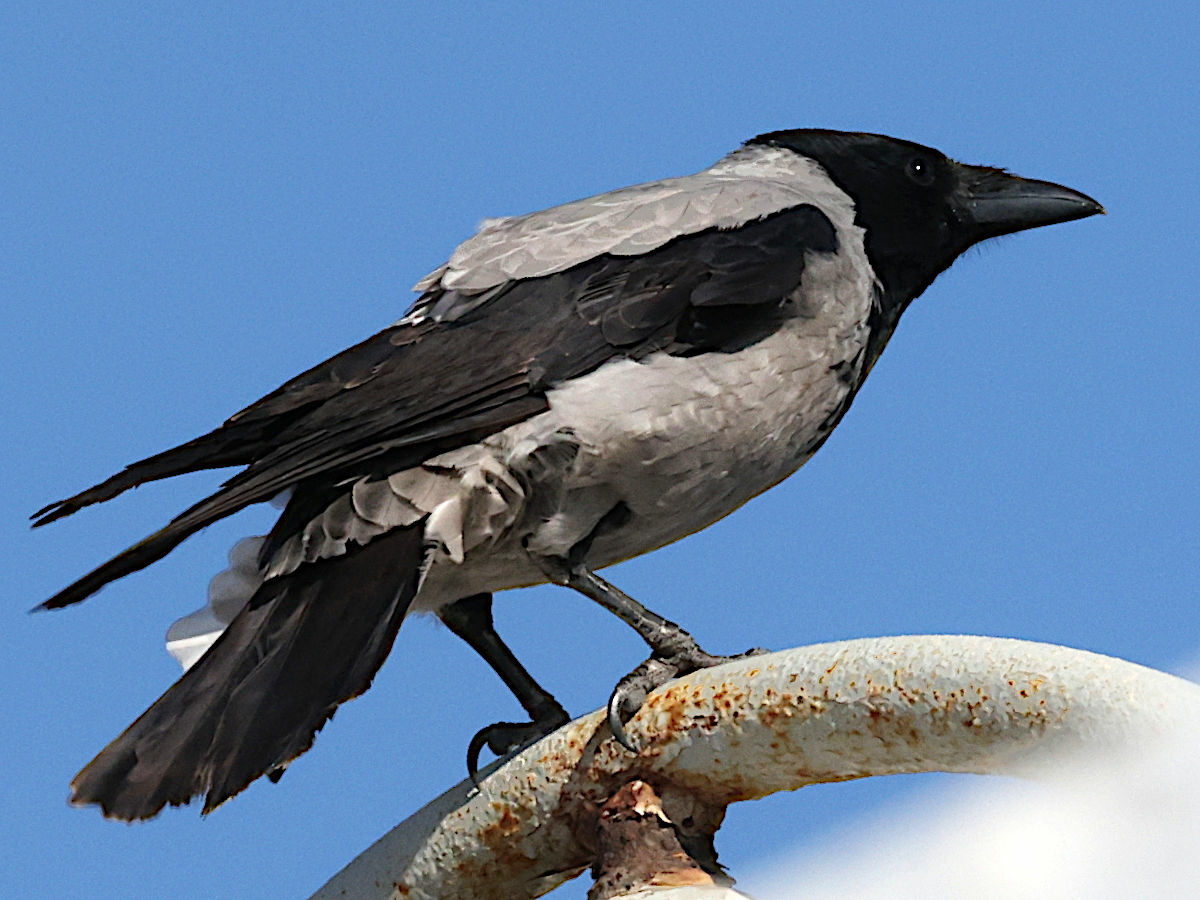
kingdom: Animalia
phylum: Chordata
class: Aves
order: Passeriformes
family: Corvidae
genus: Corvus
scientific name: Corvus cornix
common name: Hooded crow
